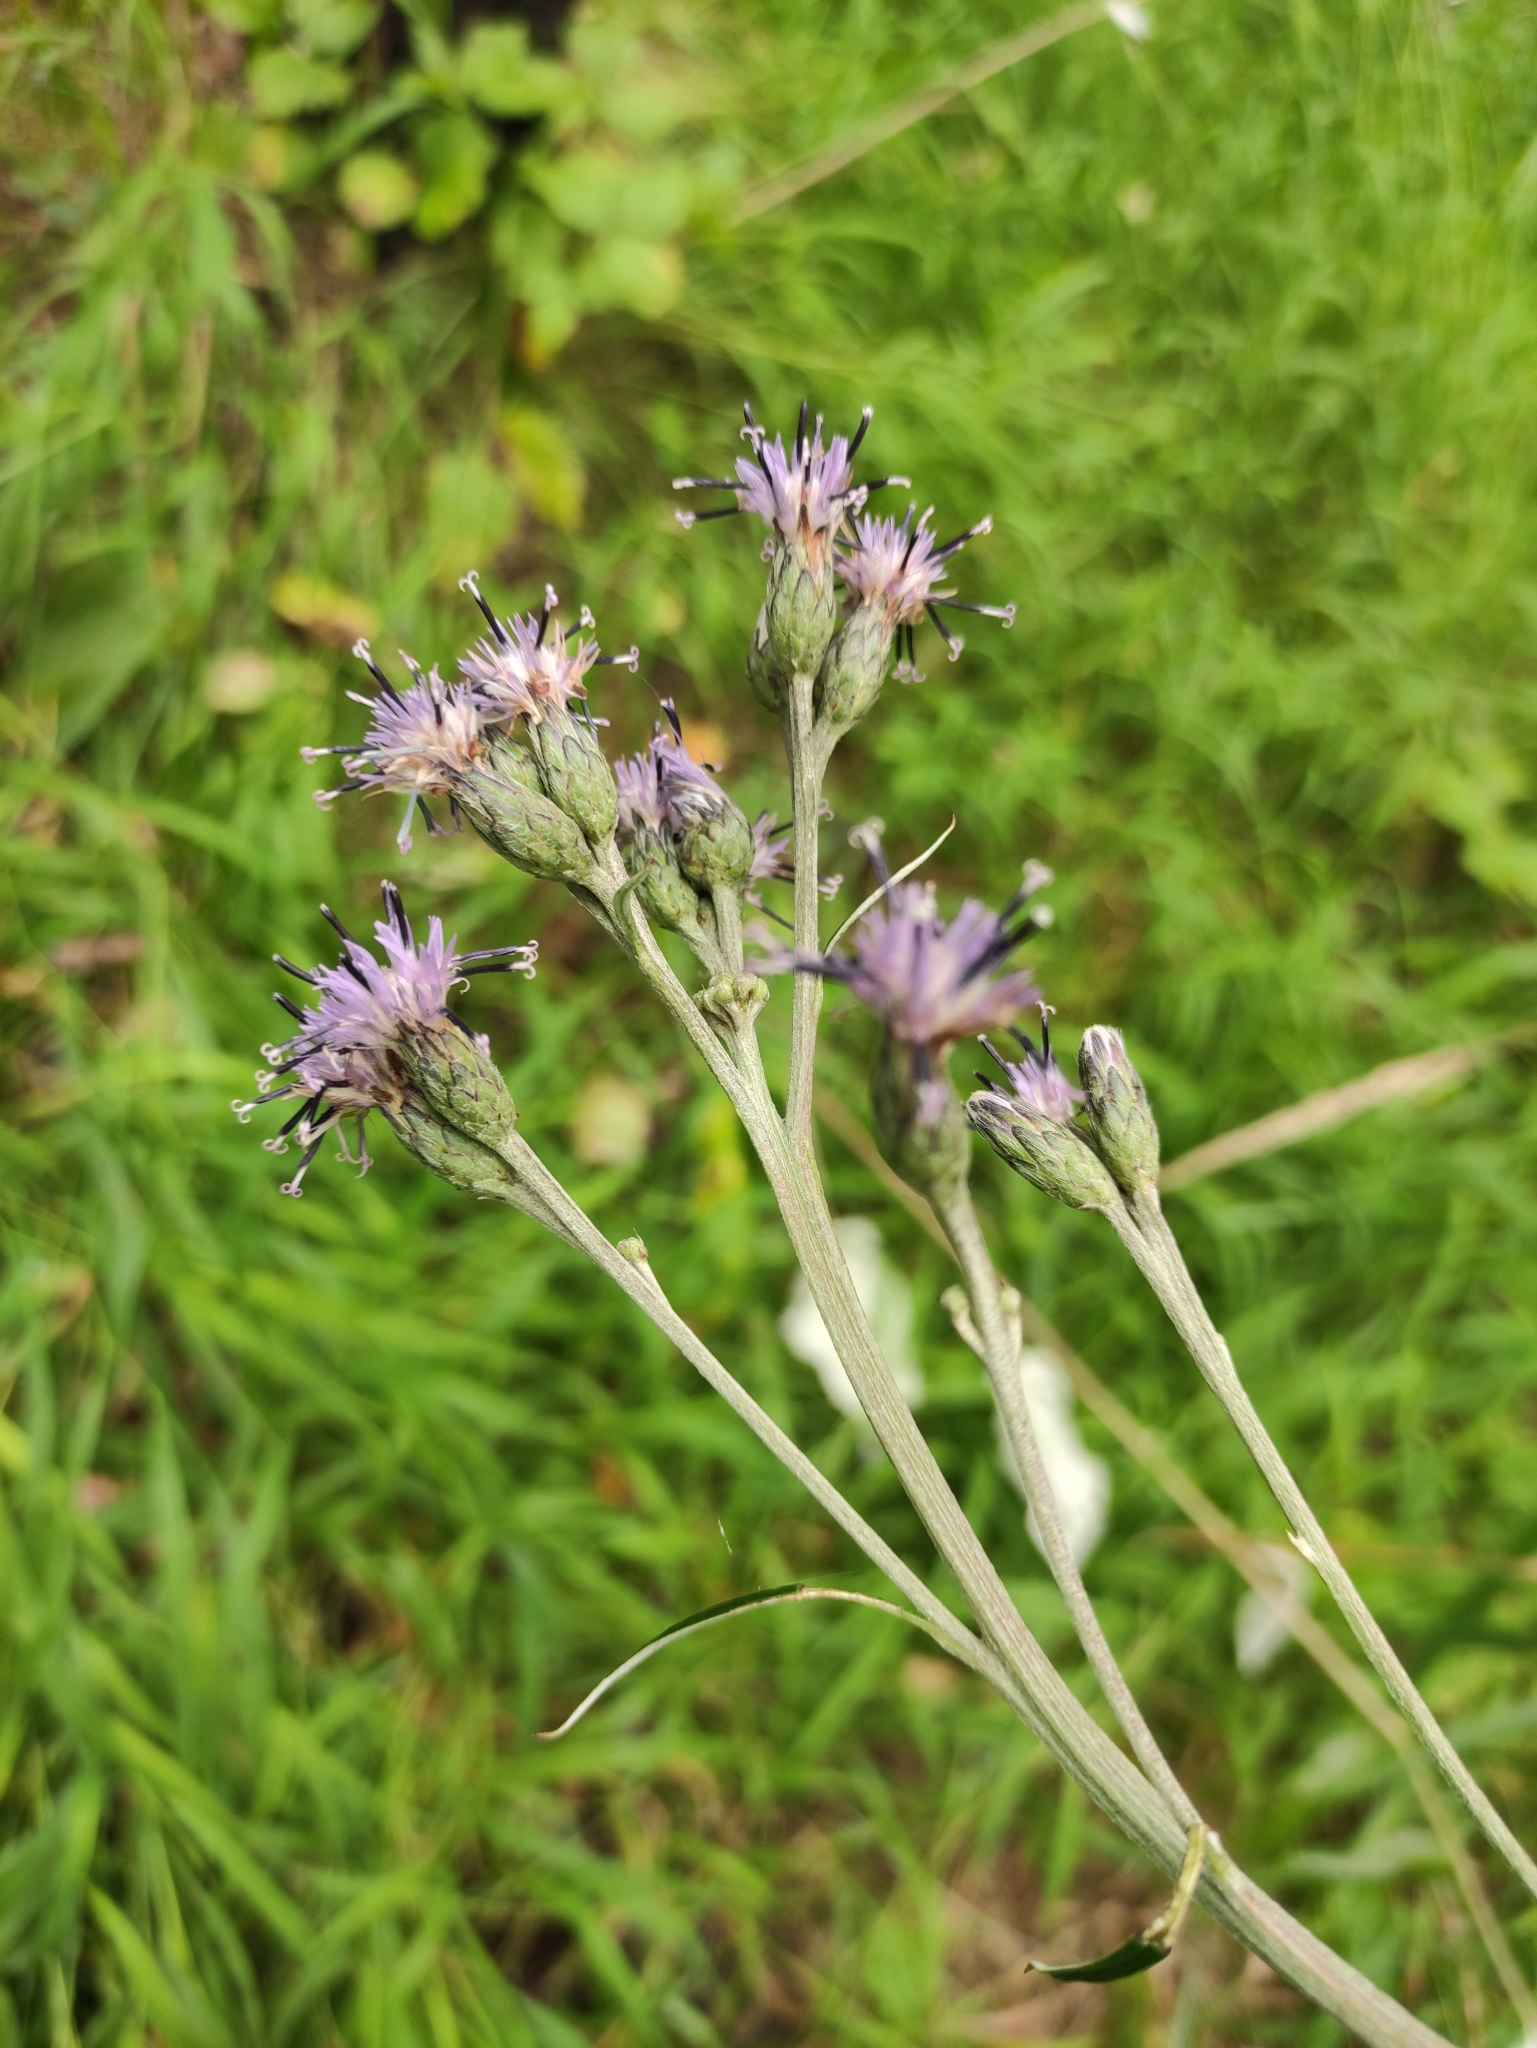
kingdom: Plantae
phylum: Tracheophyta
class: Magnoliopsida
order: Asterales
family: Asteraceae
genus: Saussurea
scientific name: Saussurea controversa
